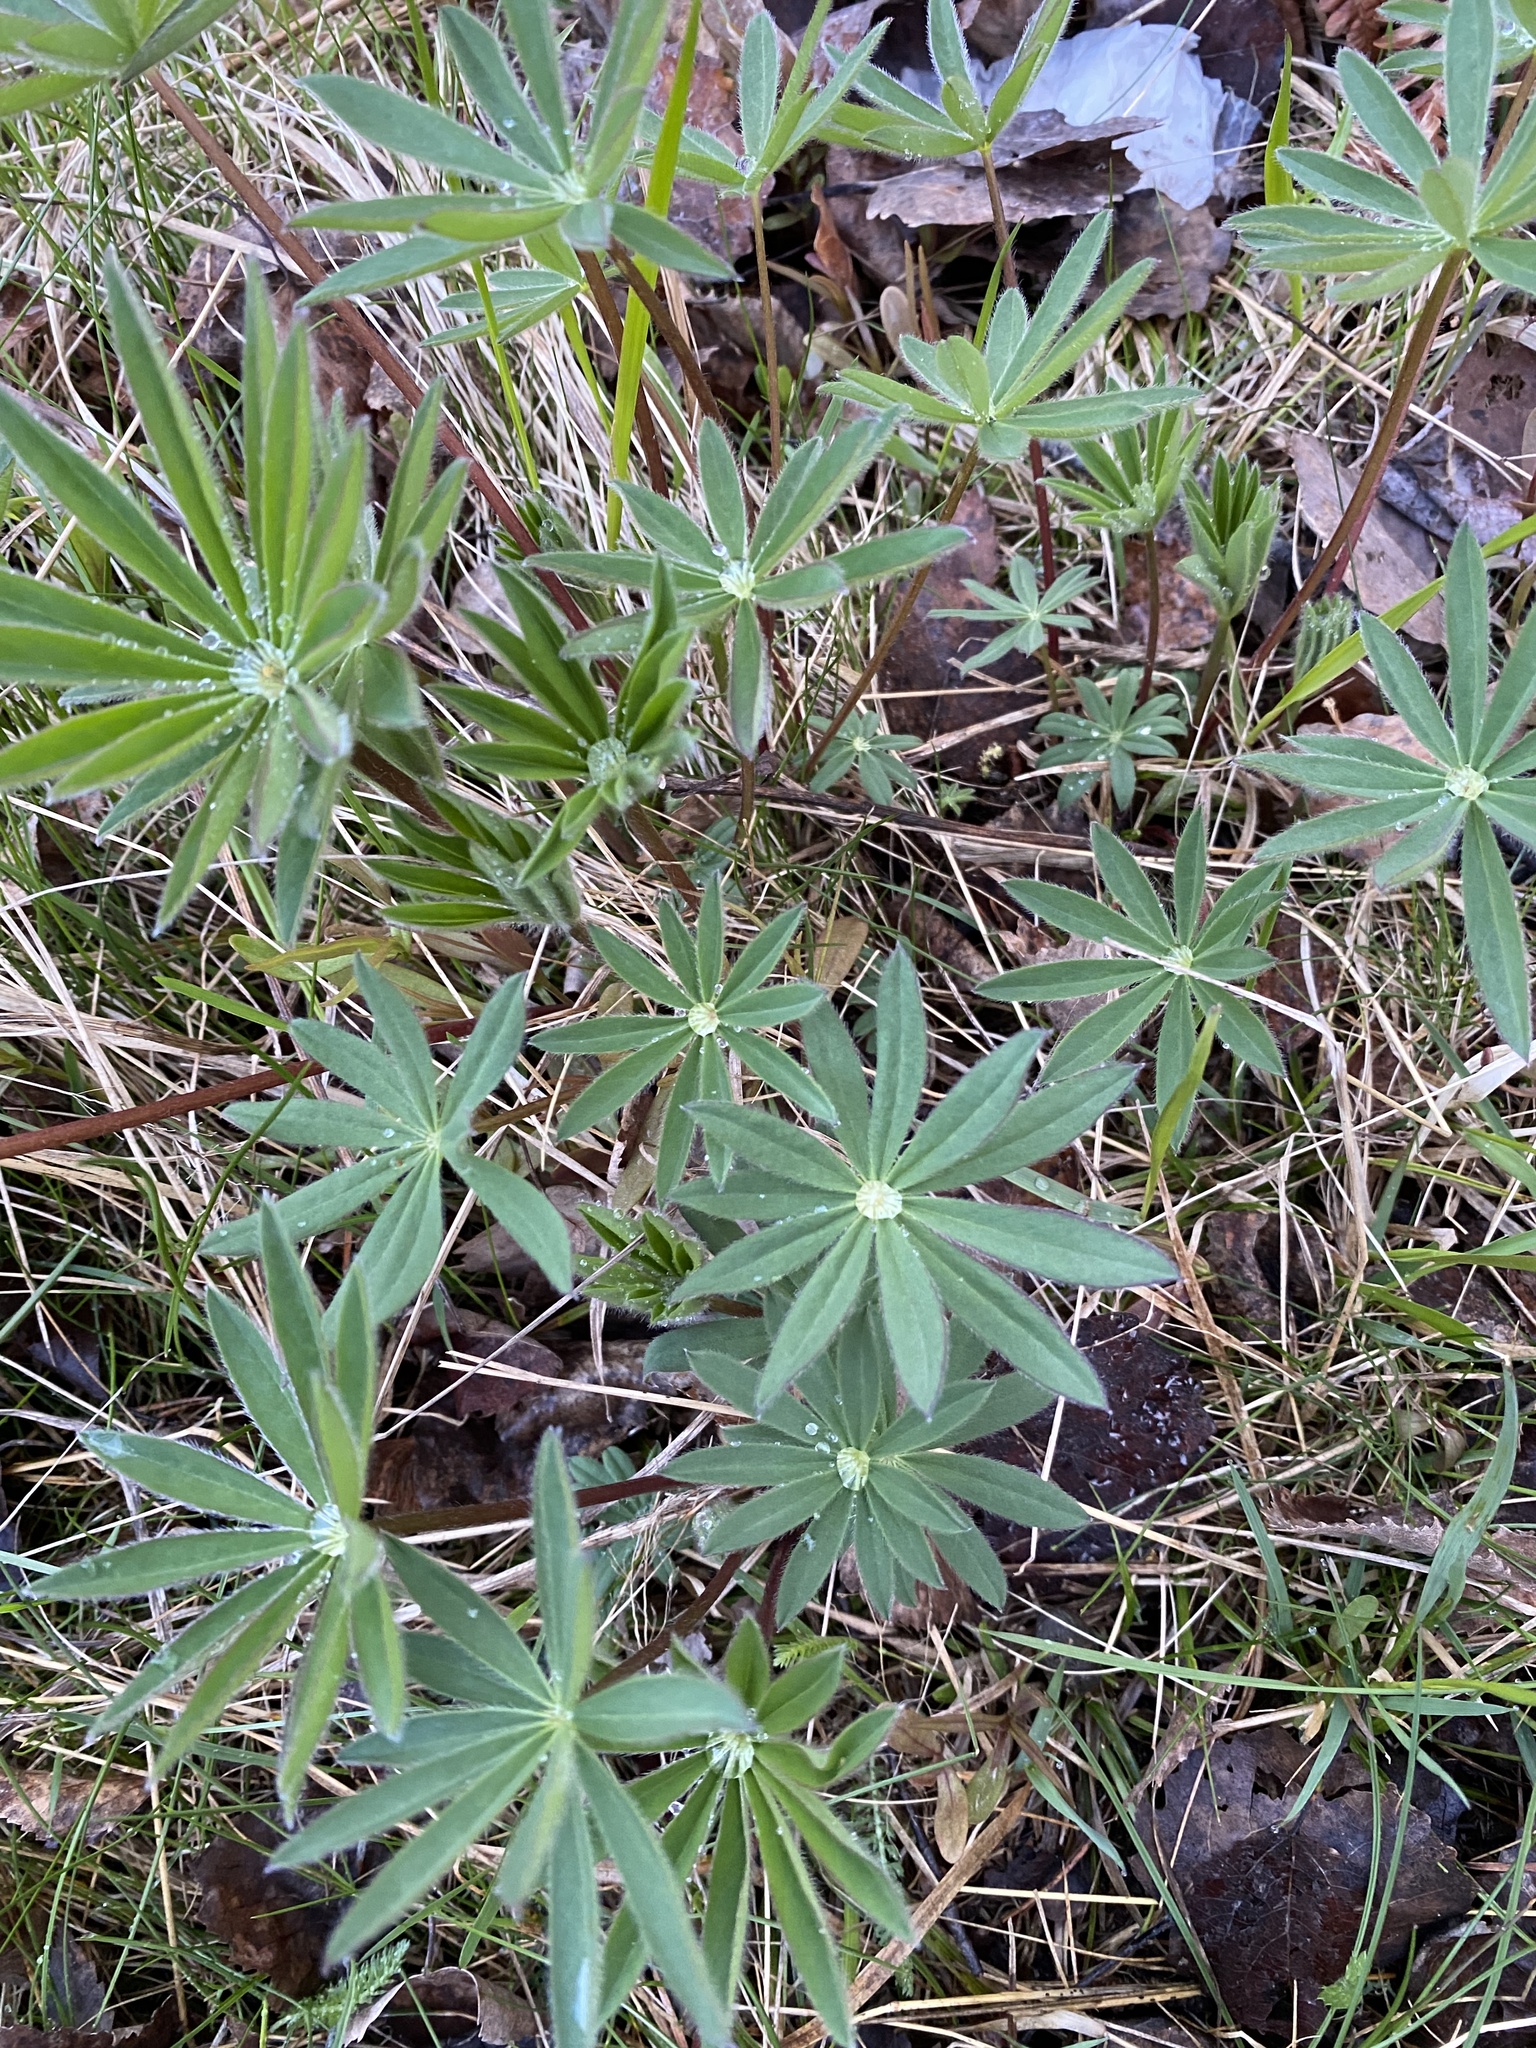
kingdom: Plantae
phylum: Tracheophyta
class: Magnoliopsida
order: Fabales
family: Fabaceae
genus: Lupinus
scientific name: Lupinus polyphyllus
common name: Garden lupin
